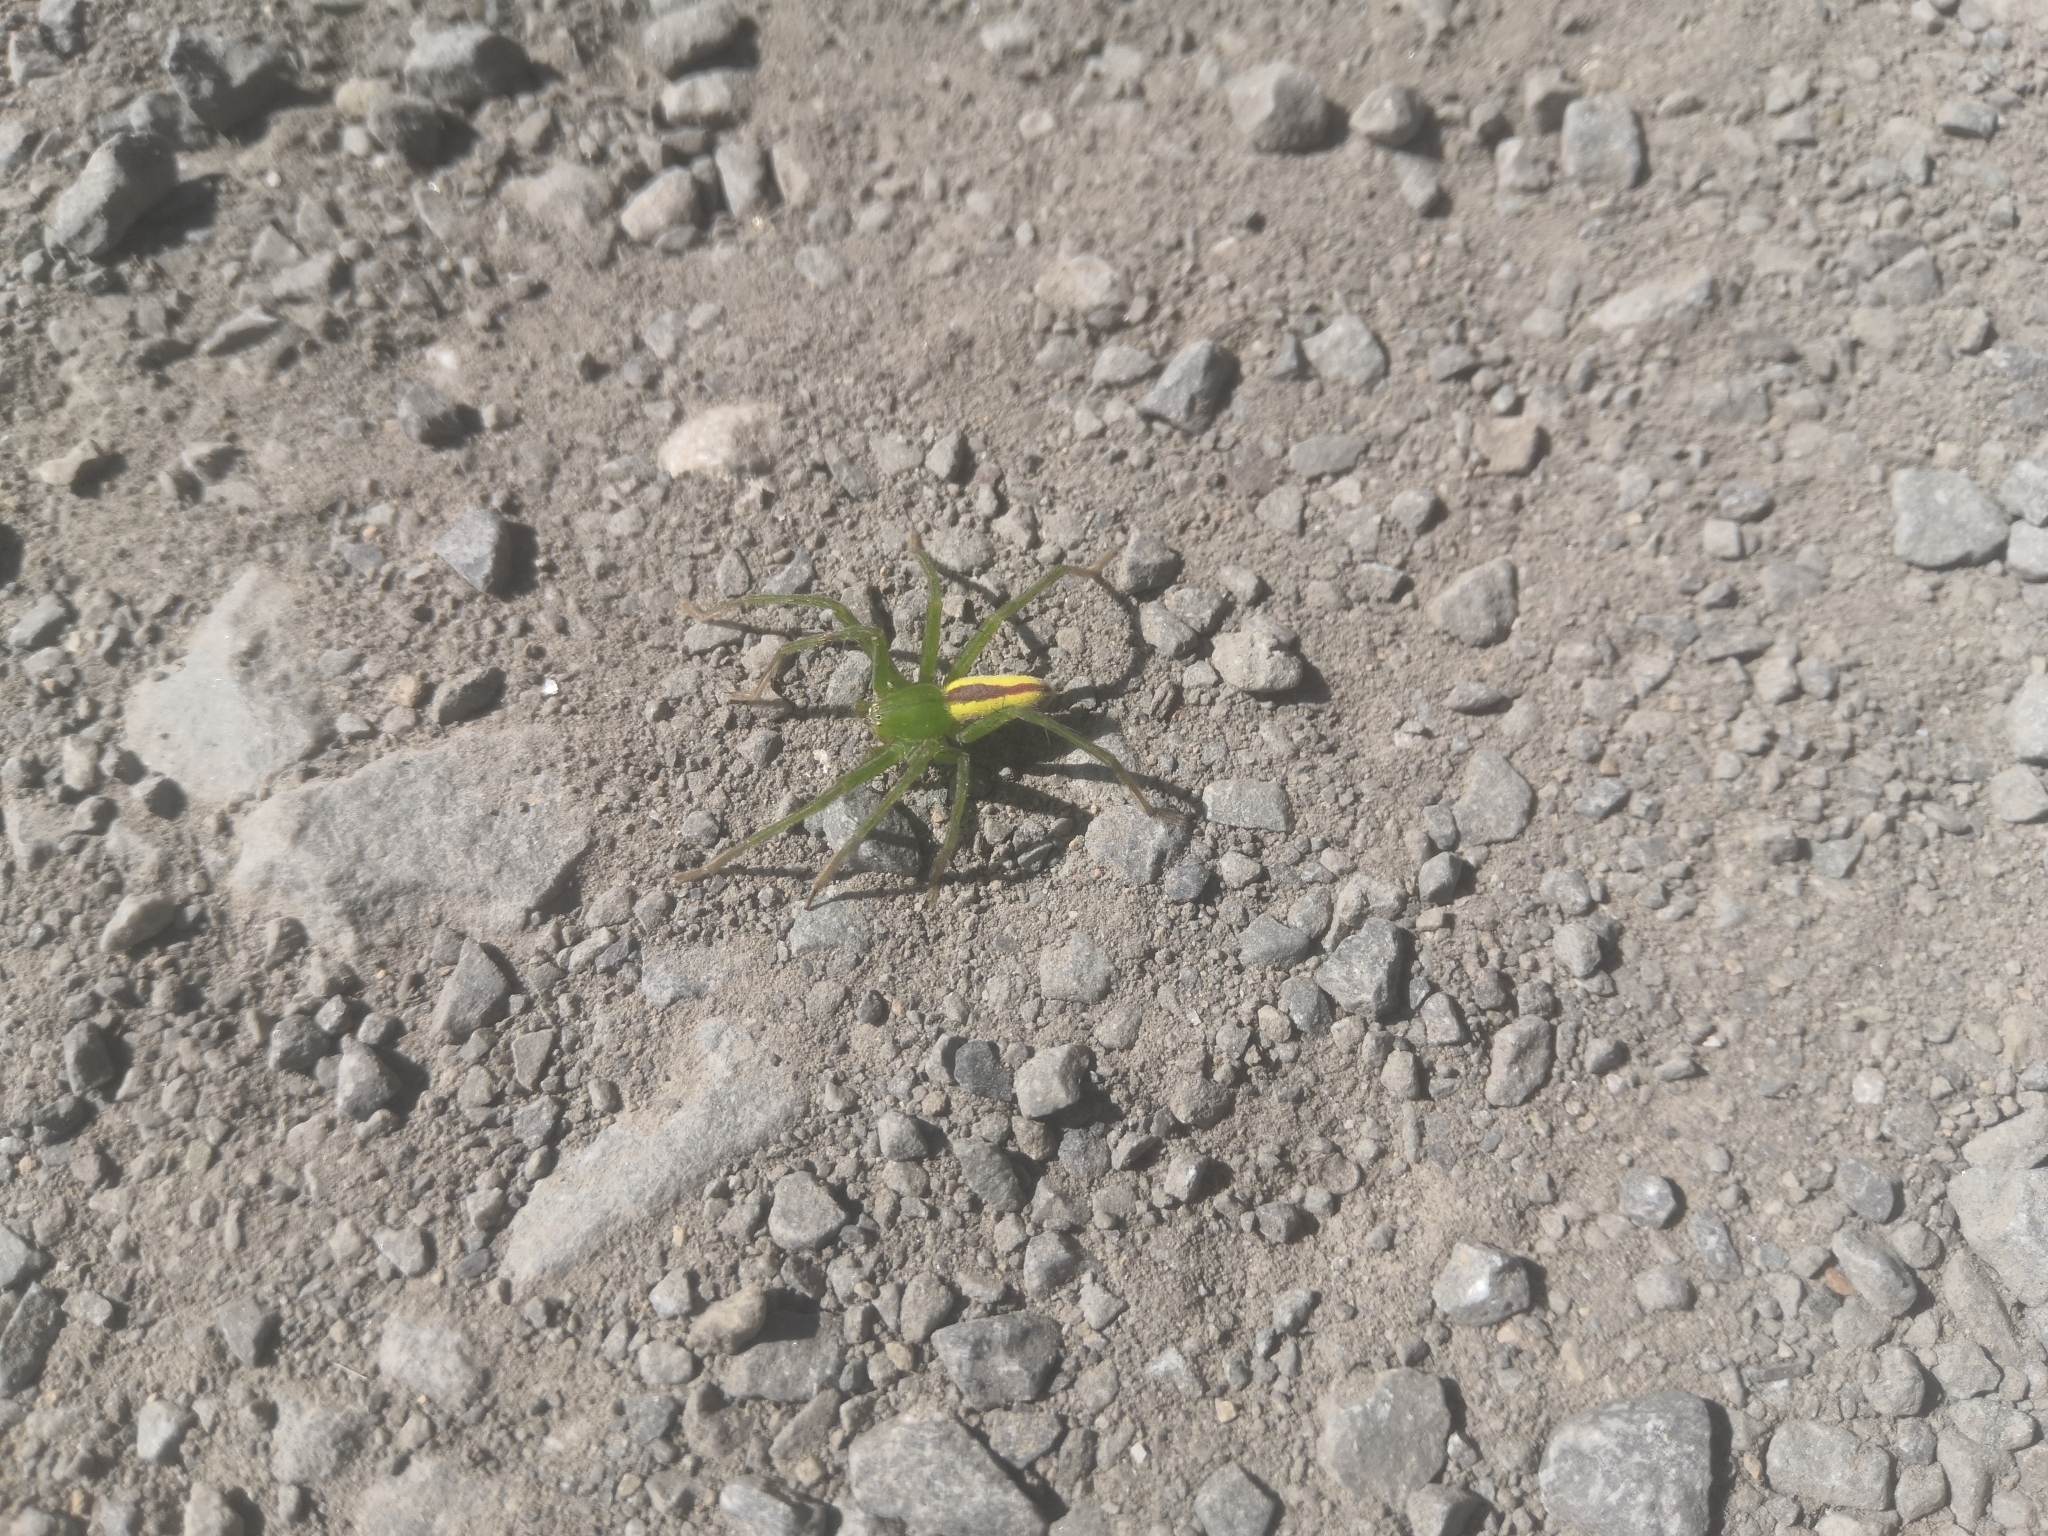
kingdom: Animalia
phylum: Arthropoda
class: Arachnida
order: Araneae
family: Sparassidae
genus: Micrommata
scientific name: Micrommata virescens
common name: Green spider
